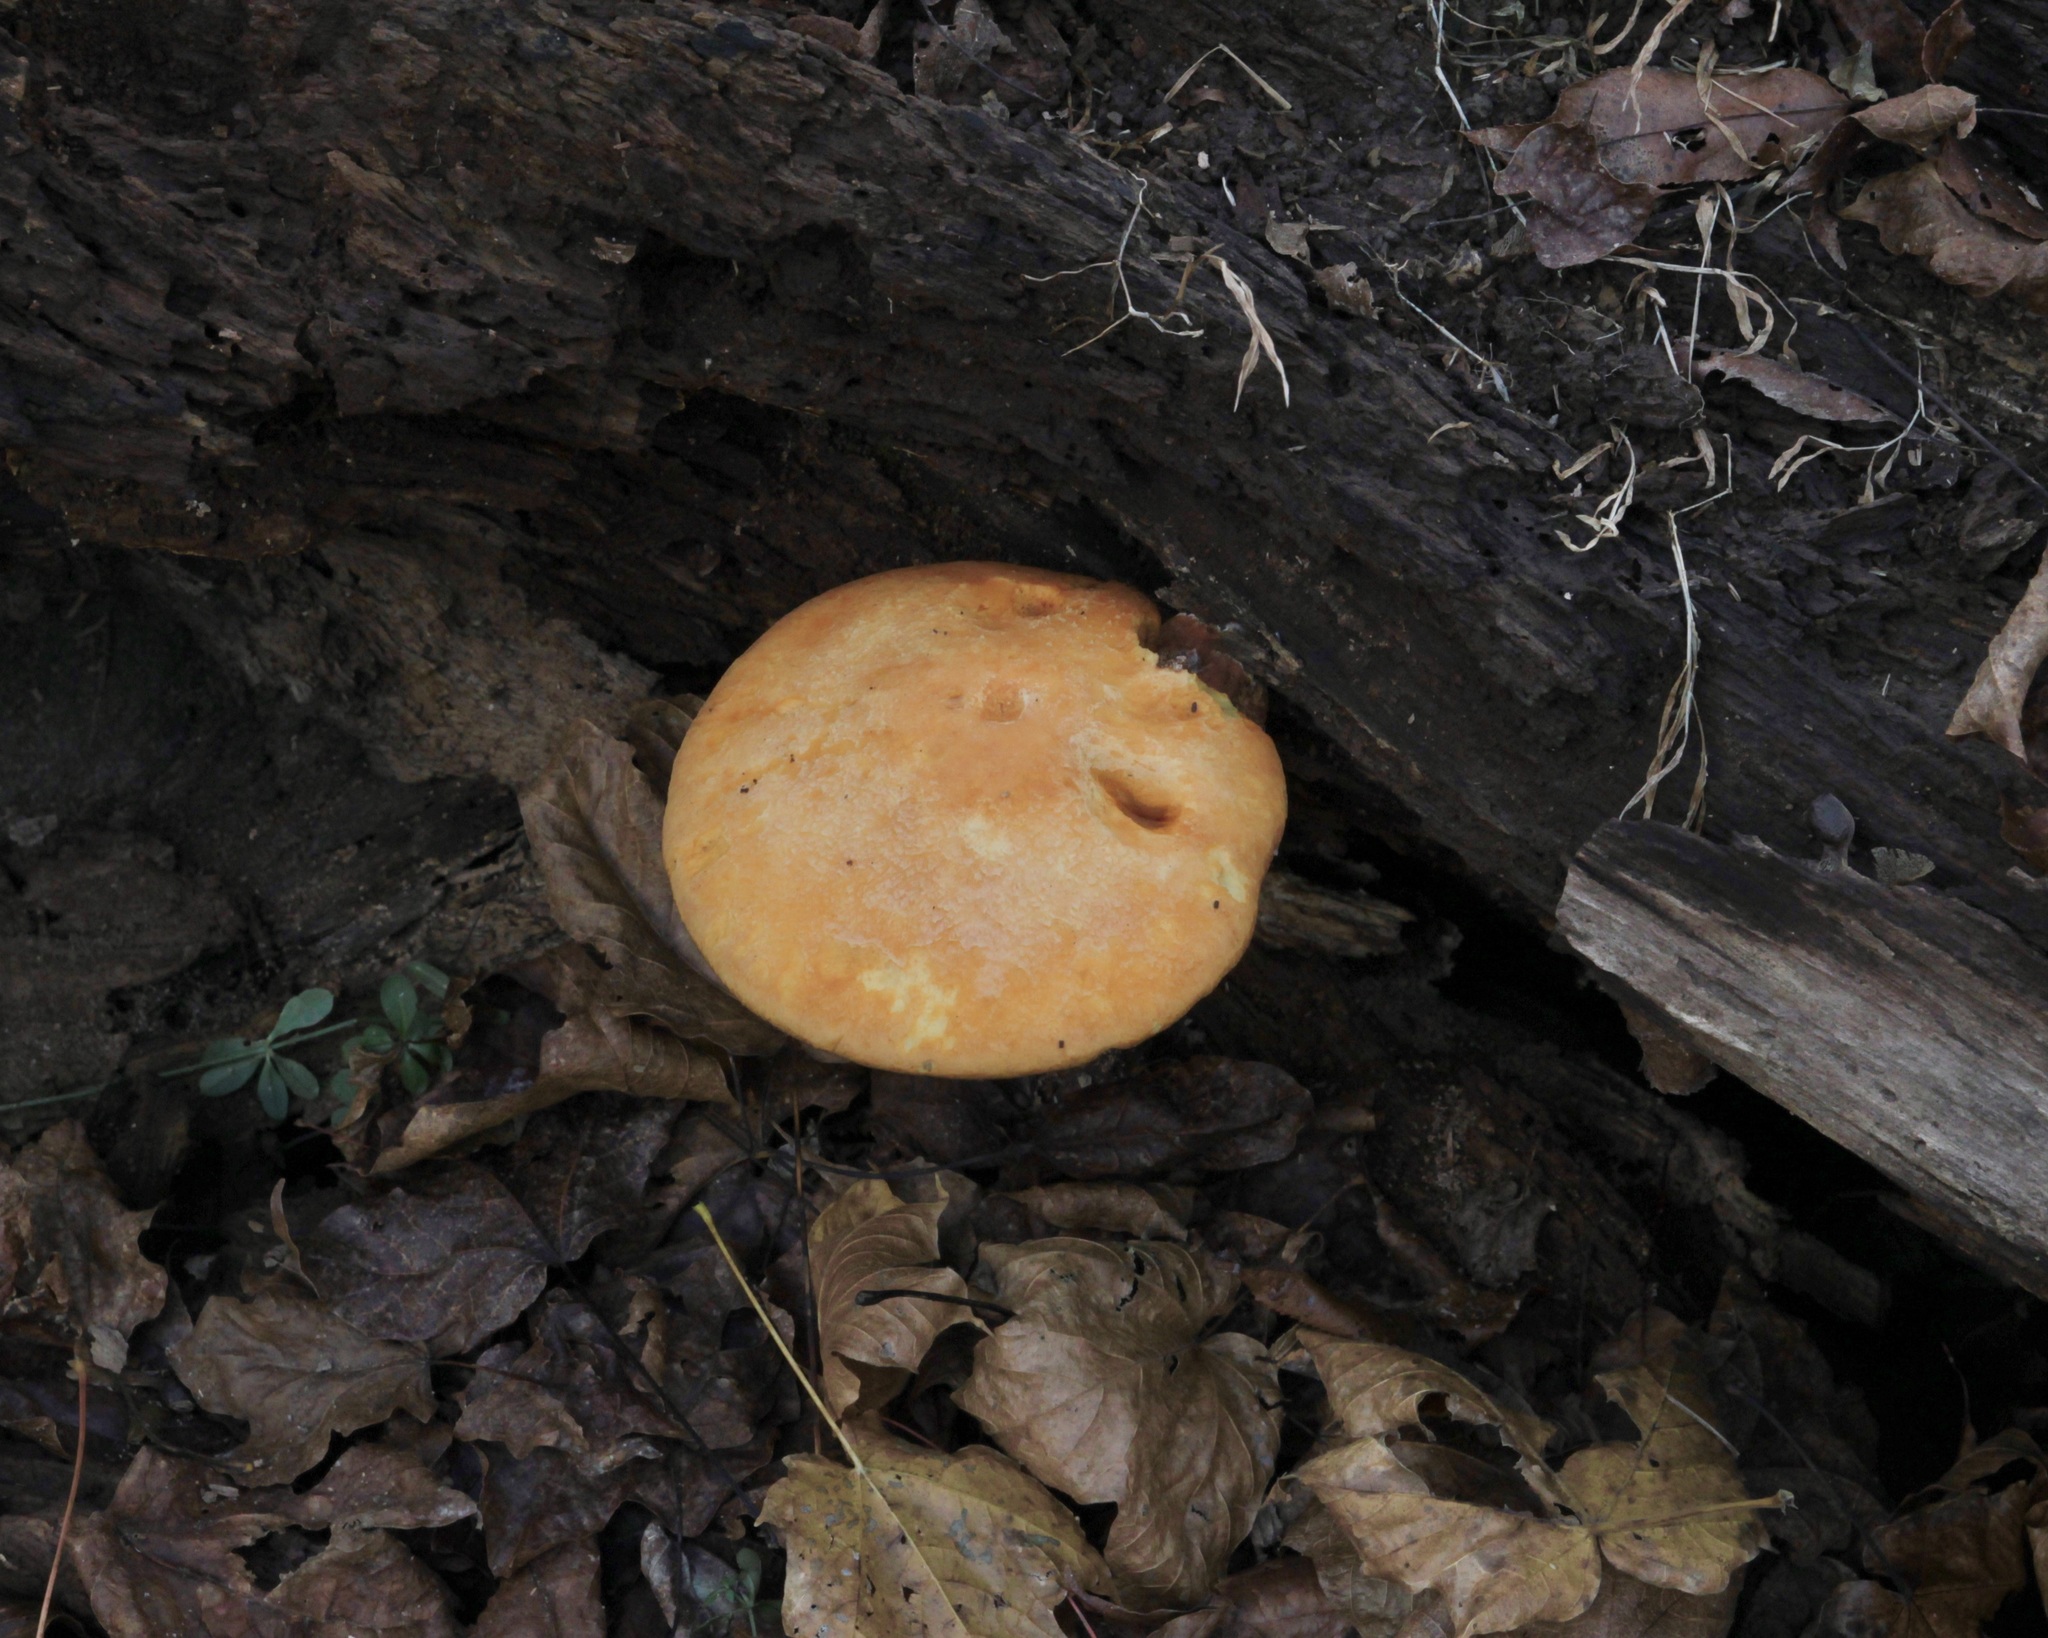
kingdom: Fungi
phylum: Basidiomycota
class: Agaricomycetes
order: Agaricales
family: Hymenogastraceae
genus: Gymnopilus
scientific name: Gymnopilus luteus
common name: Yellow gymnopilus
